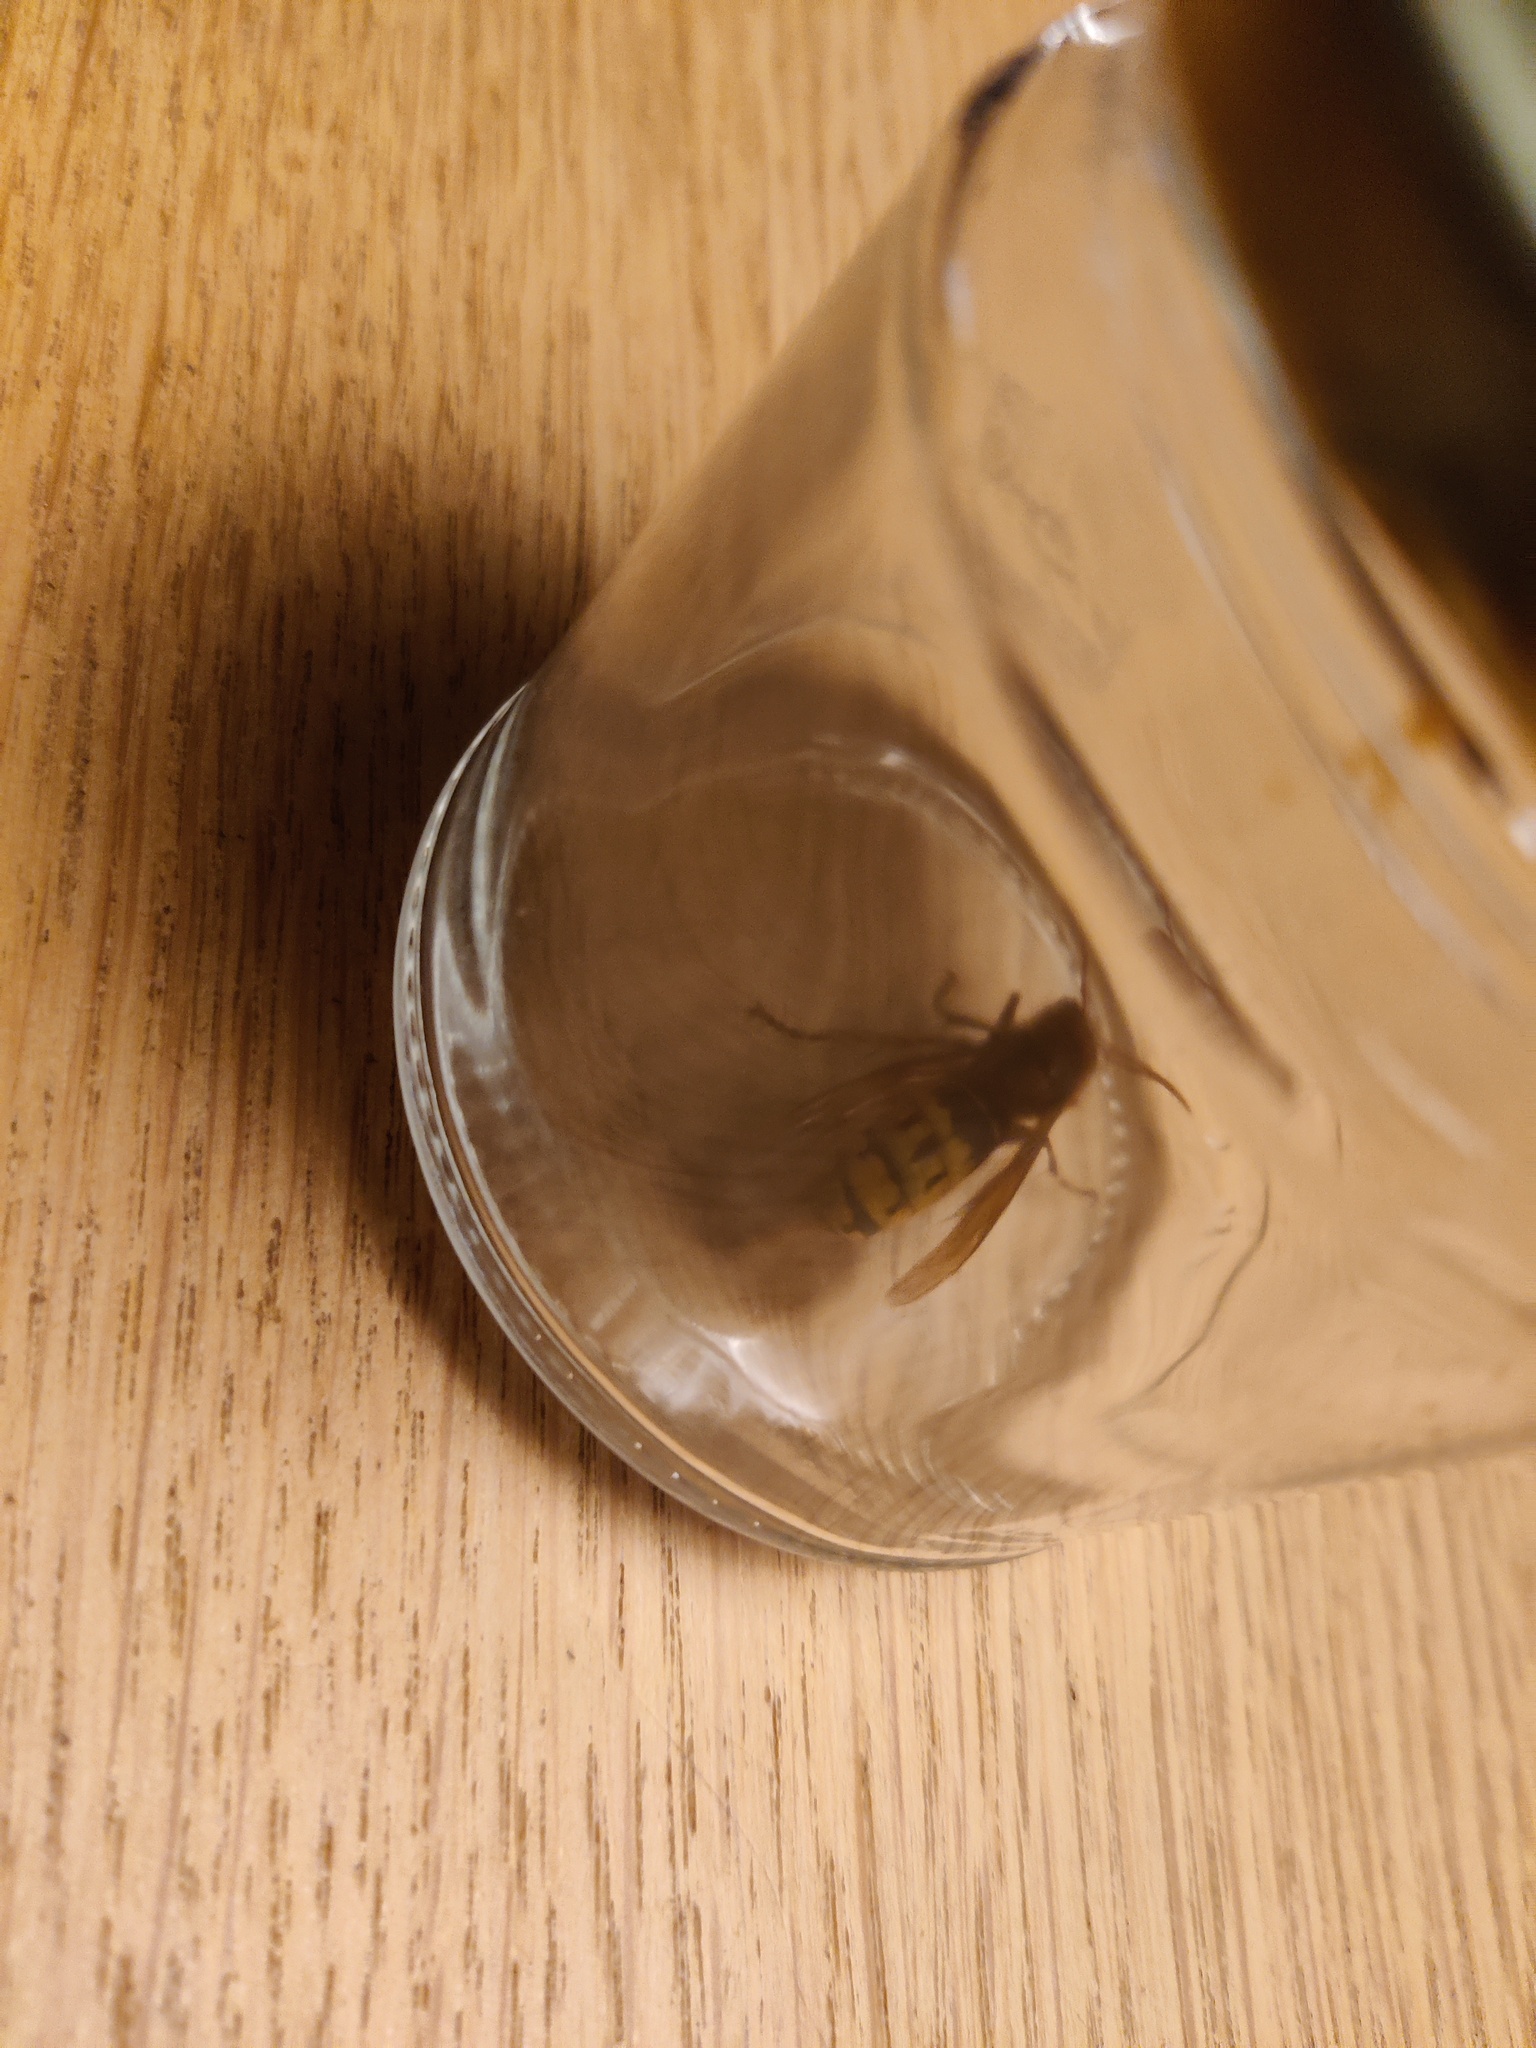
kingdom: Animalia
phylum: Arthropoda
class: Insecta
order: Hymenoptera
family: Vespidae
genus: Vespa
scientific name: Vespa crabro
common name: Hornet
